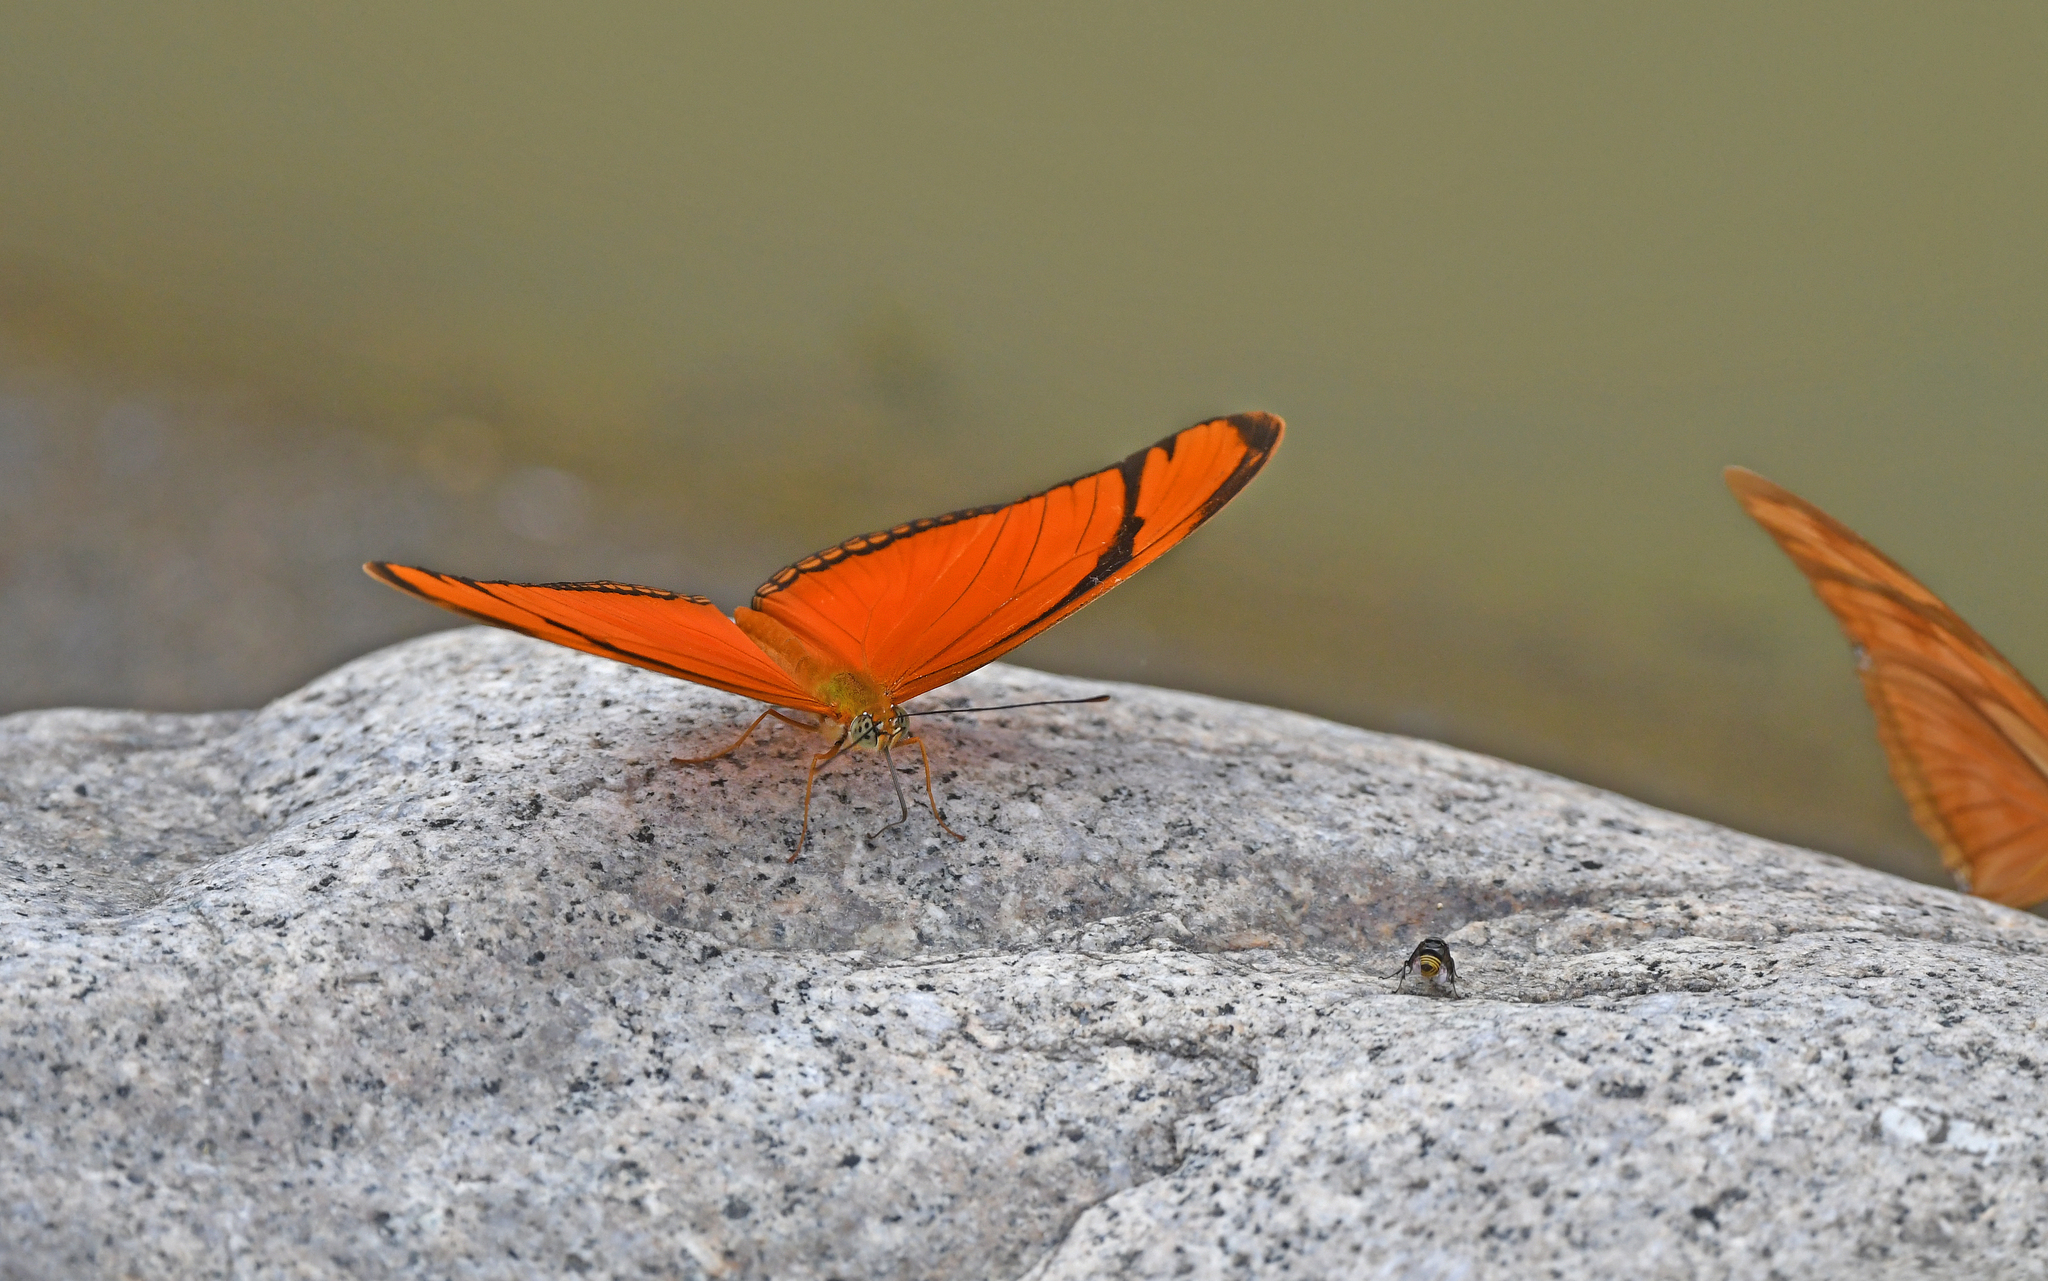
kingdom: Animalia
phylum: Arthropoda
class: Insecta
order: Lepidoptera
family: Nymphalidae
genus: Dryas
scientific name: Dryas iulia
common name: Flambeau
